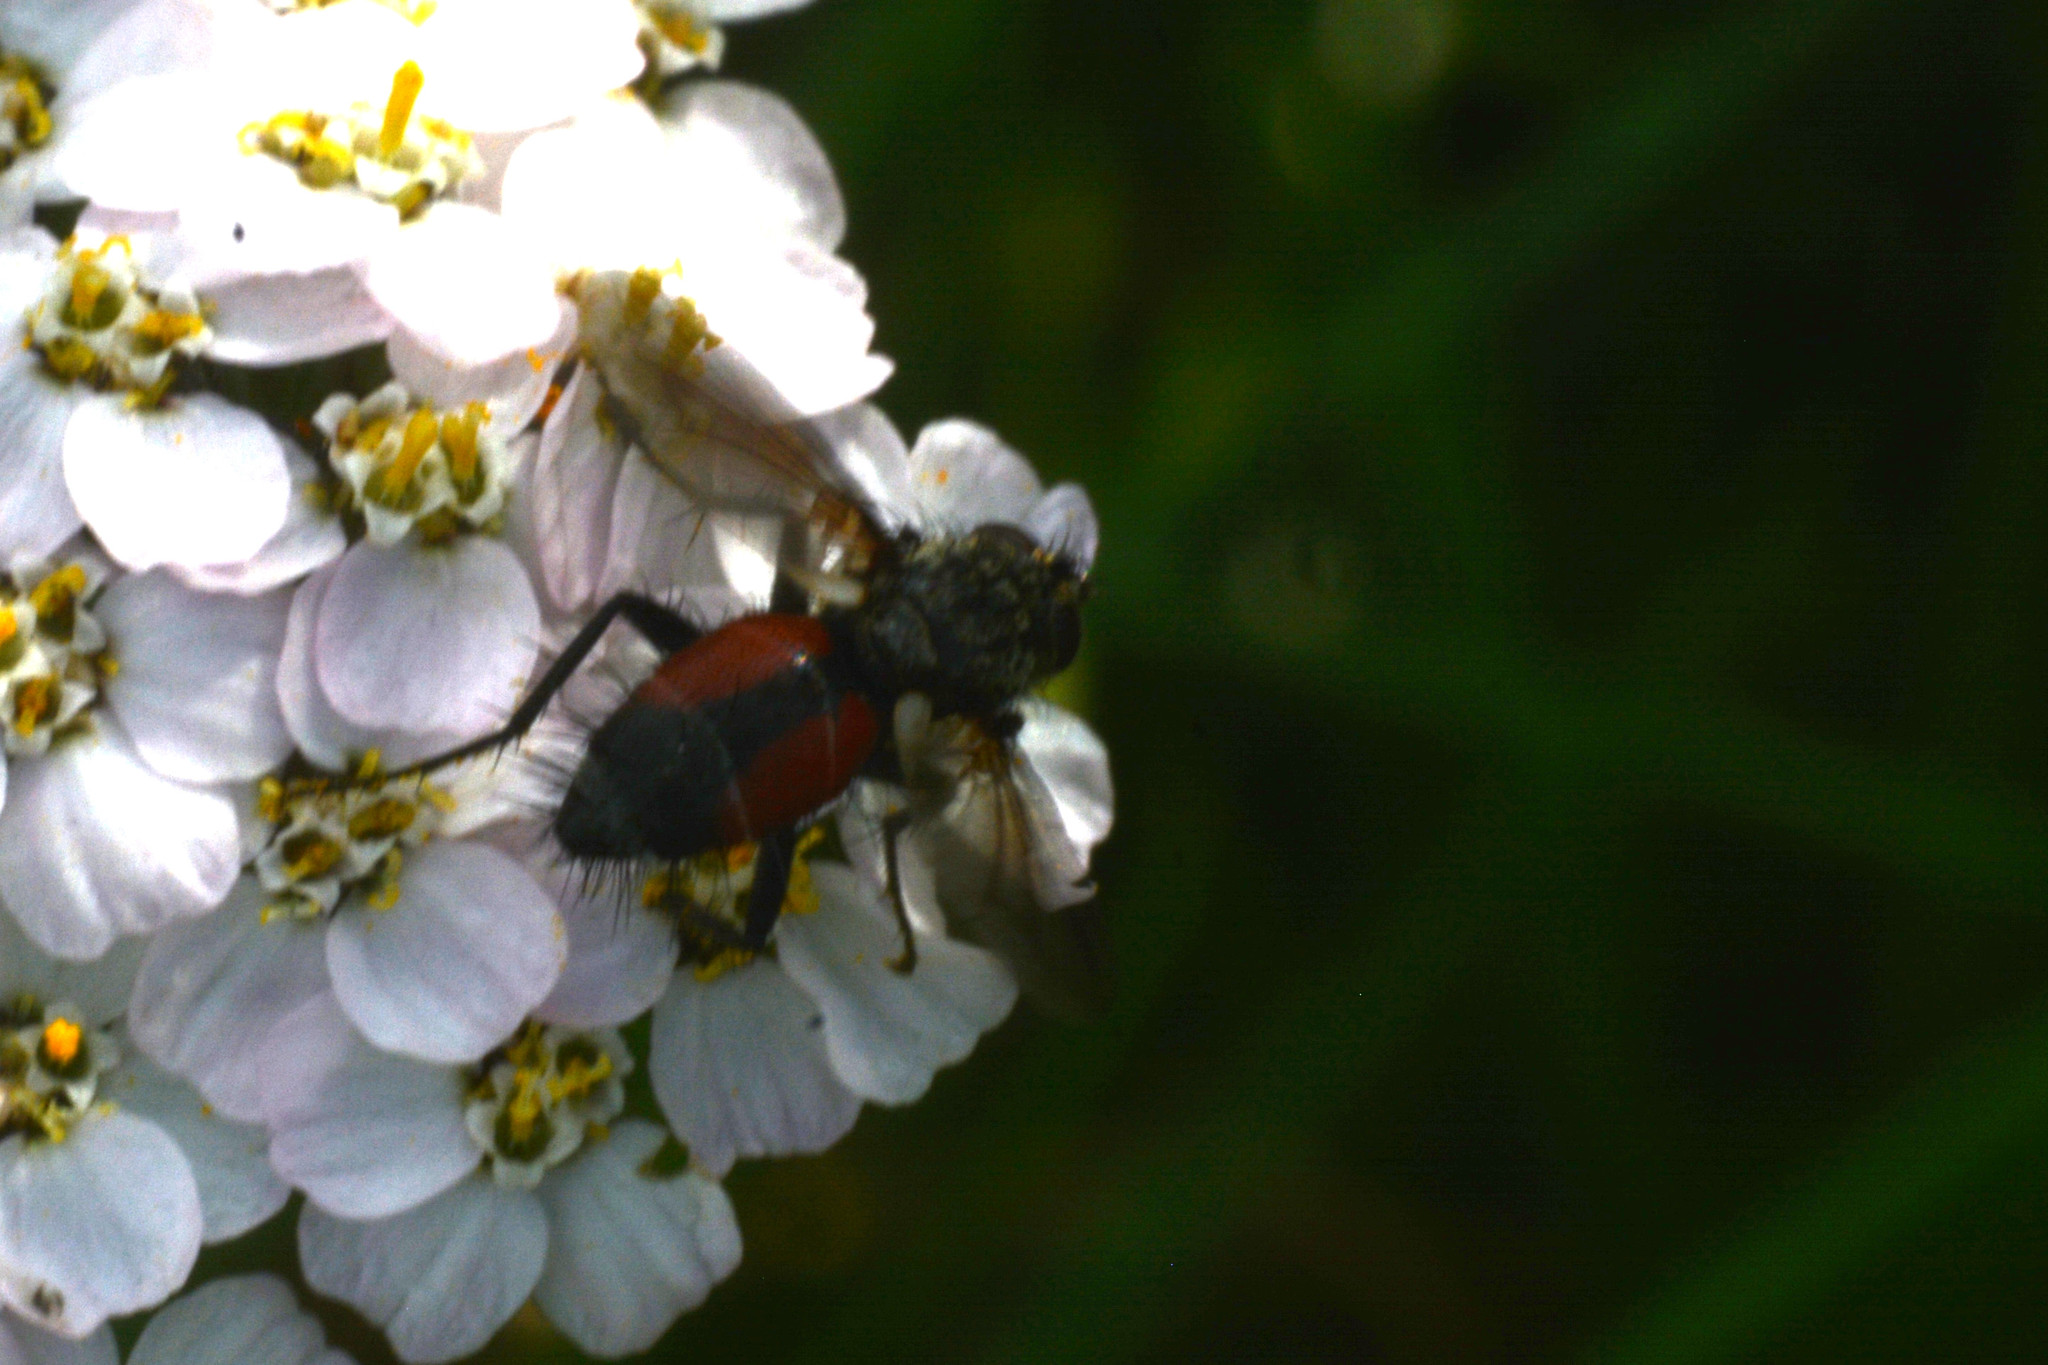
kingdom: Animalia
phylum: Arthropoda
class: Insecta
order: Diptera
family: Tachinidae
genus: Eriothrix
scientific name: Eriothrix rufomaculatus
